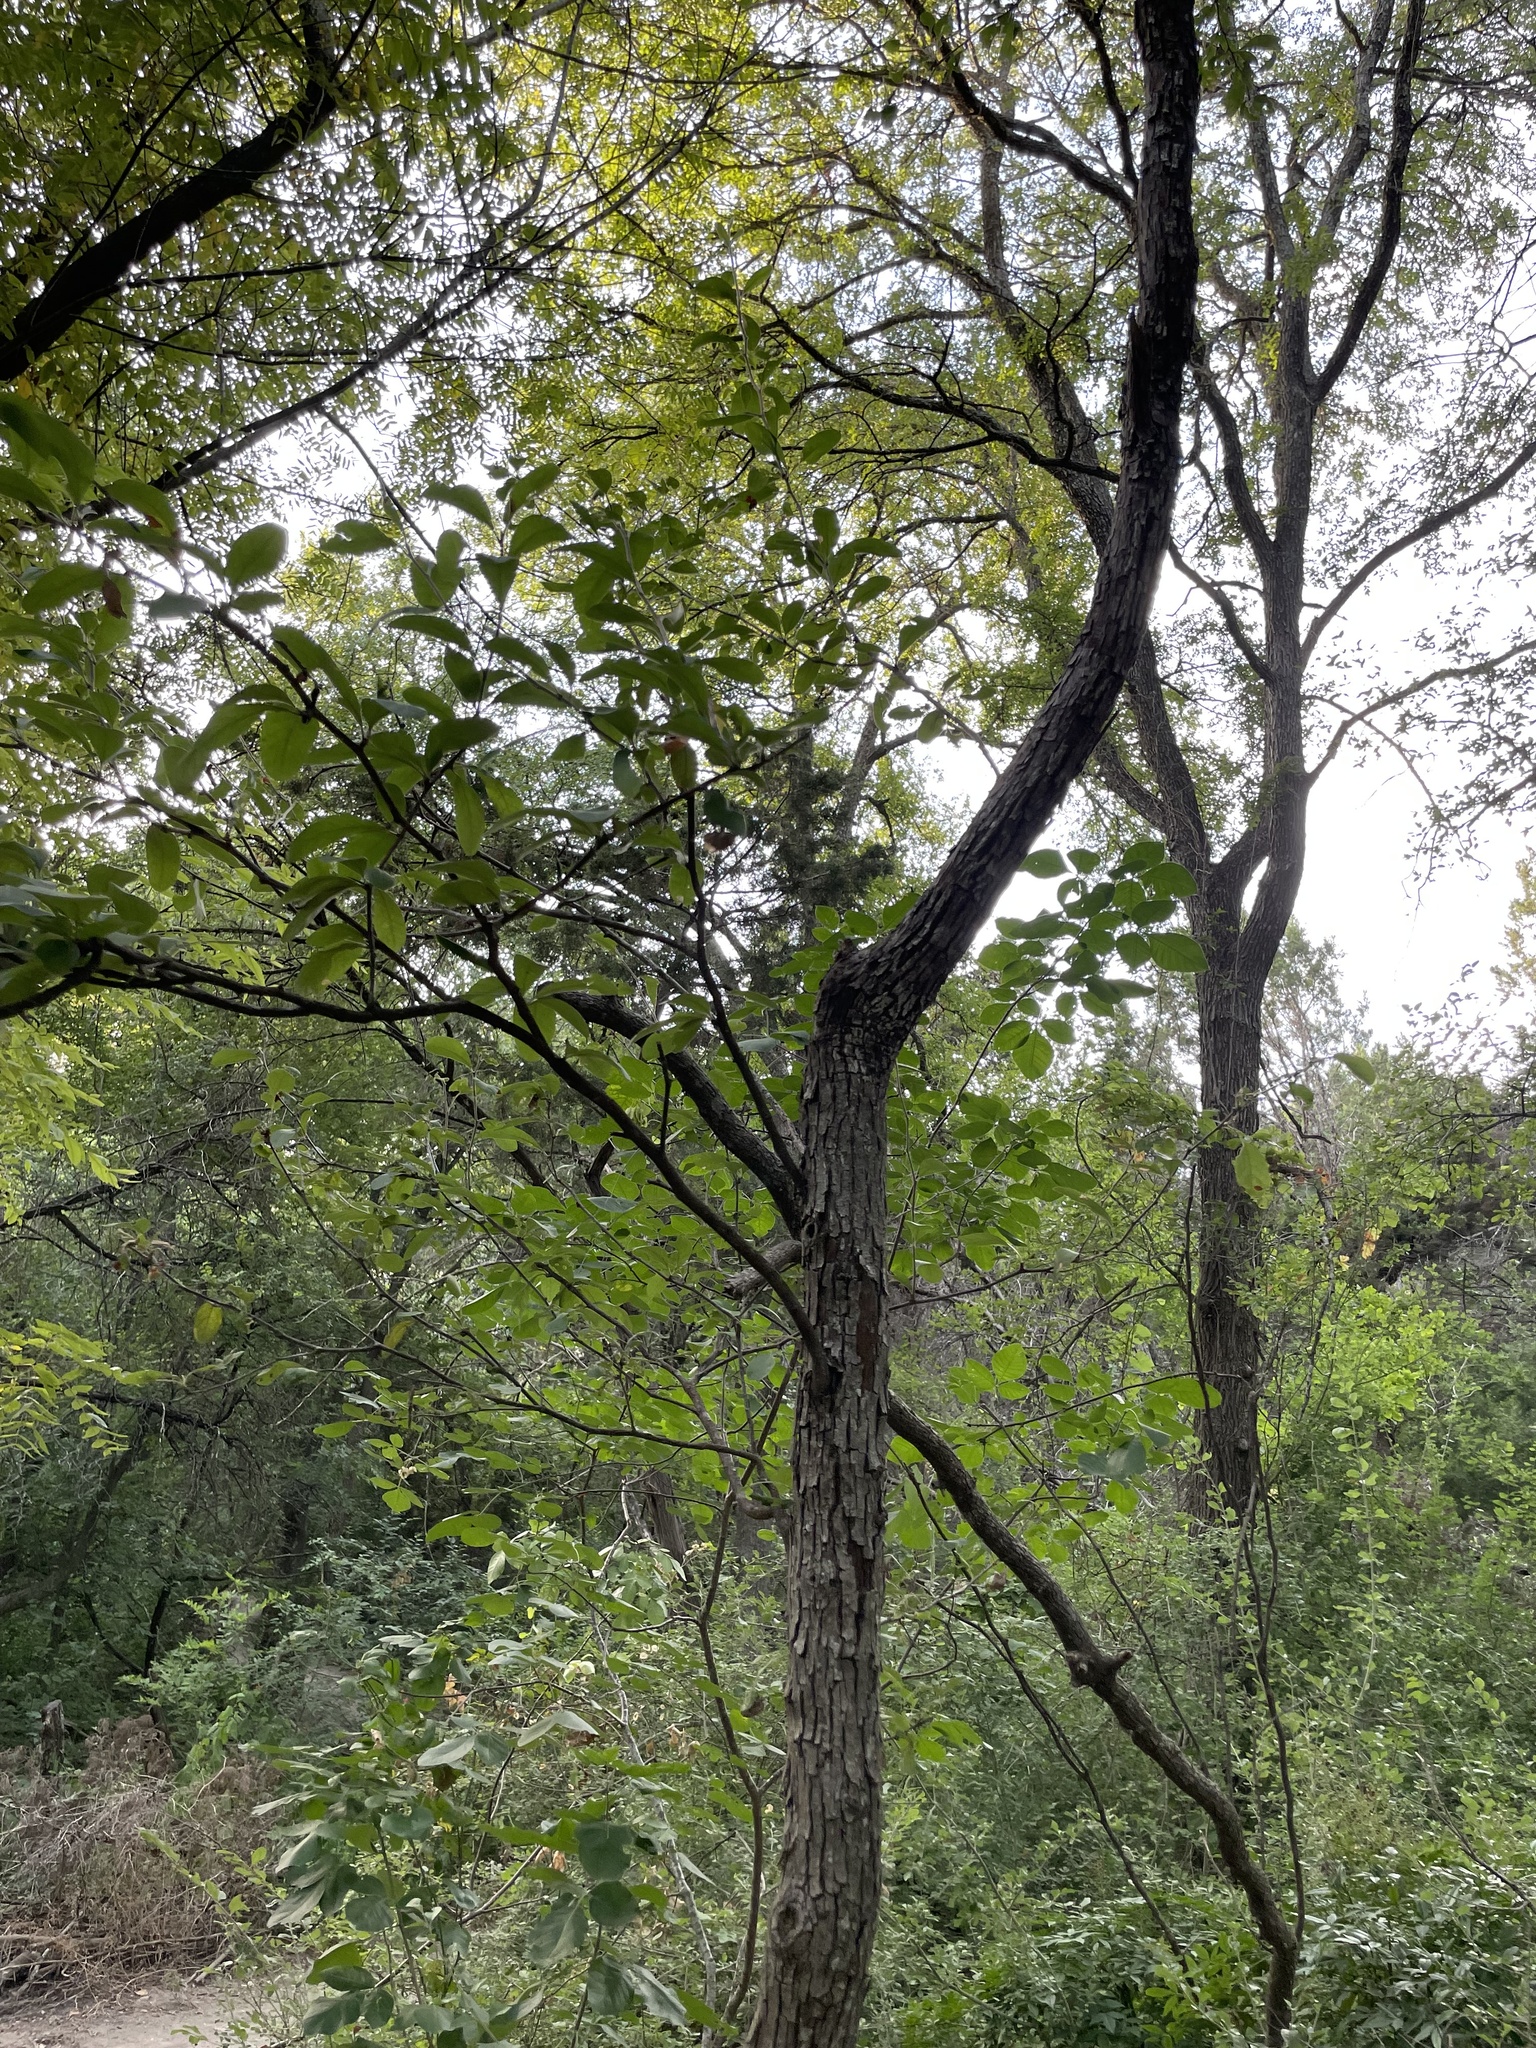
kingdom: Plantae
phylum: Tracheophyta
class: Magnoliopsida
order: Ericales
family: Sapotaceae
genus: Sideroxylon
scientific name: Sideroxylon lanuginosum
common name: Chittamwood
